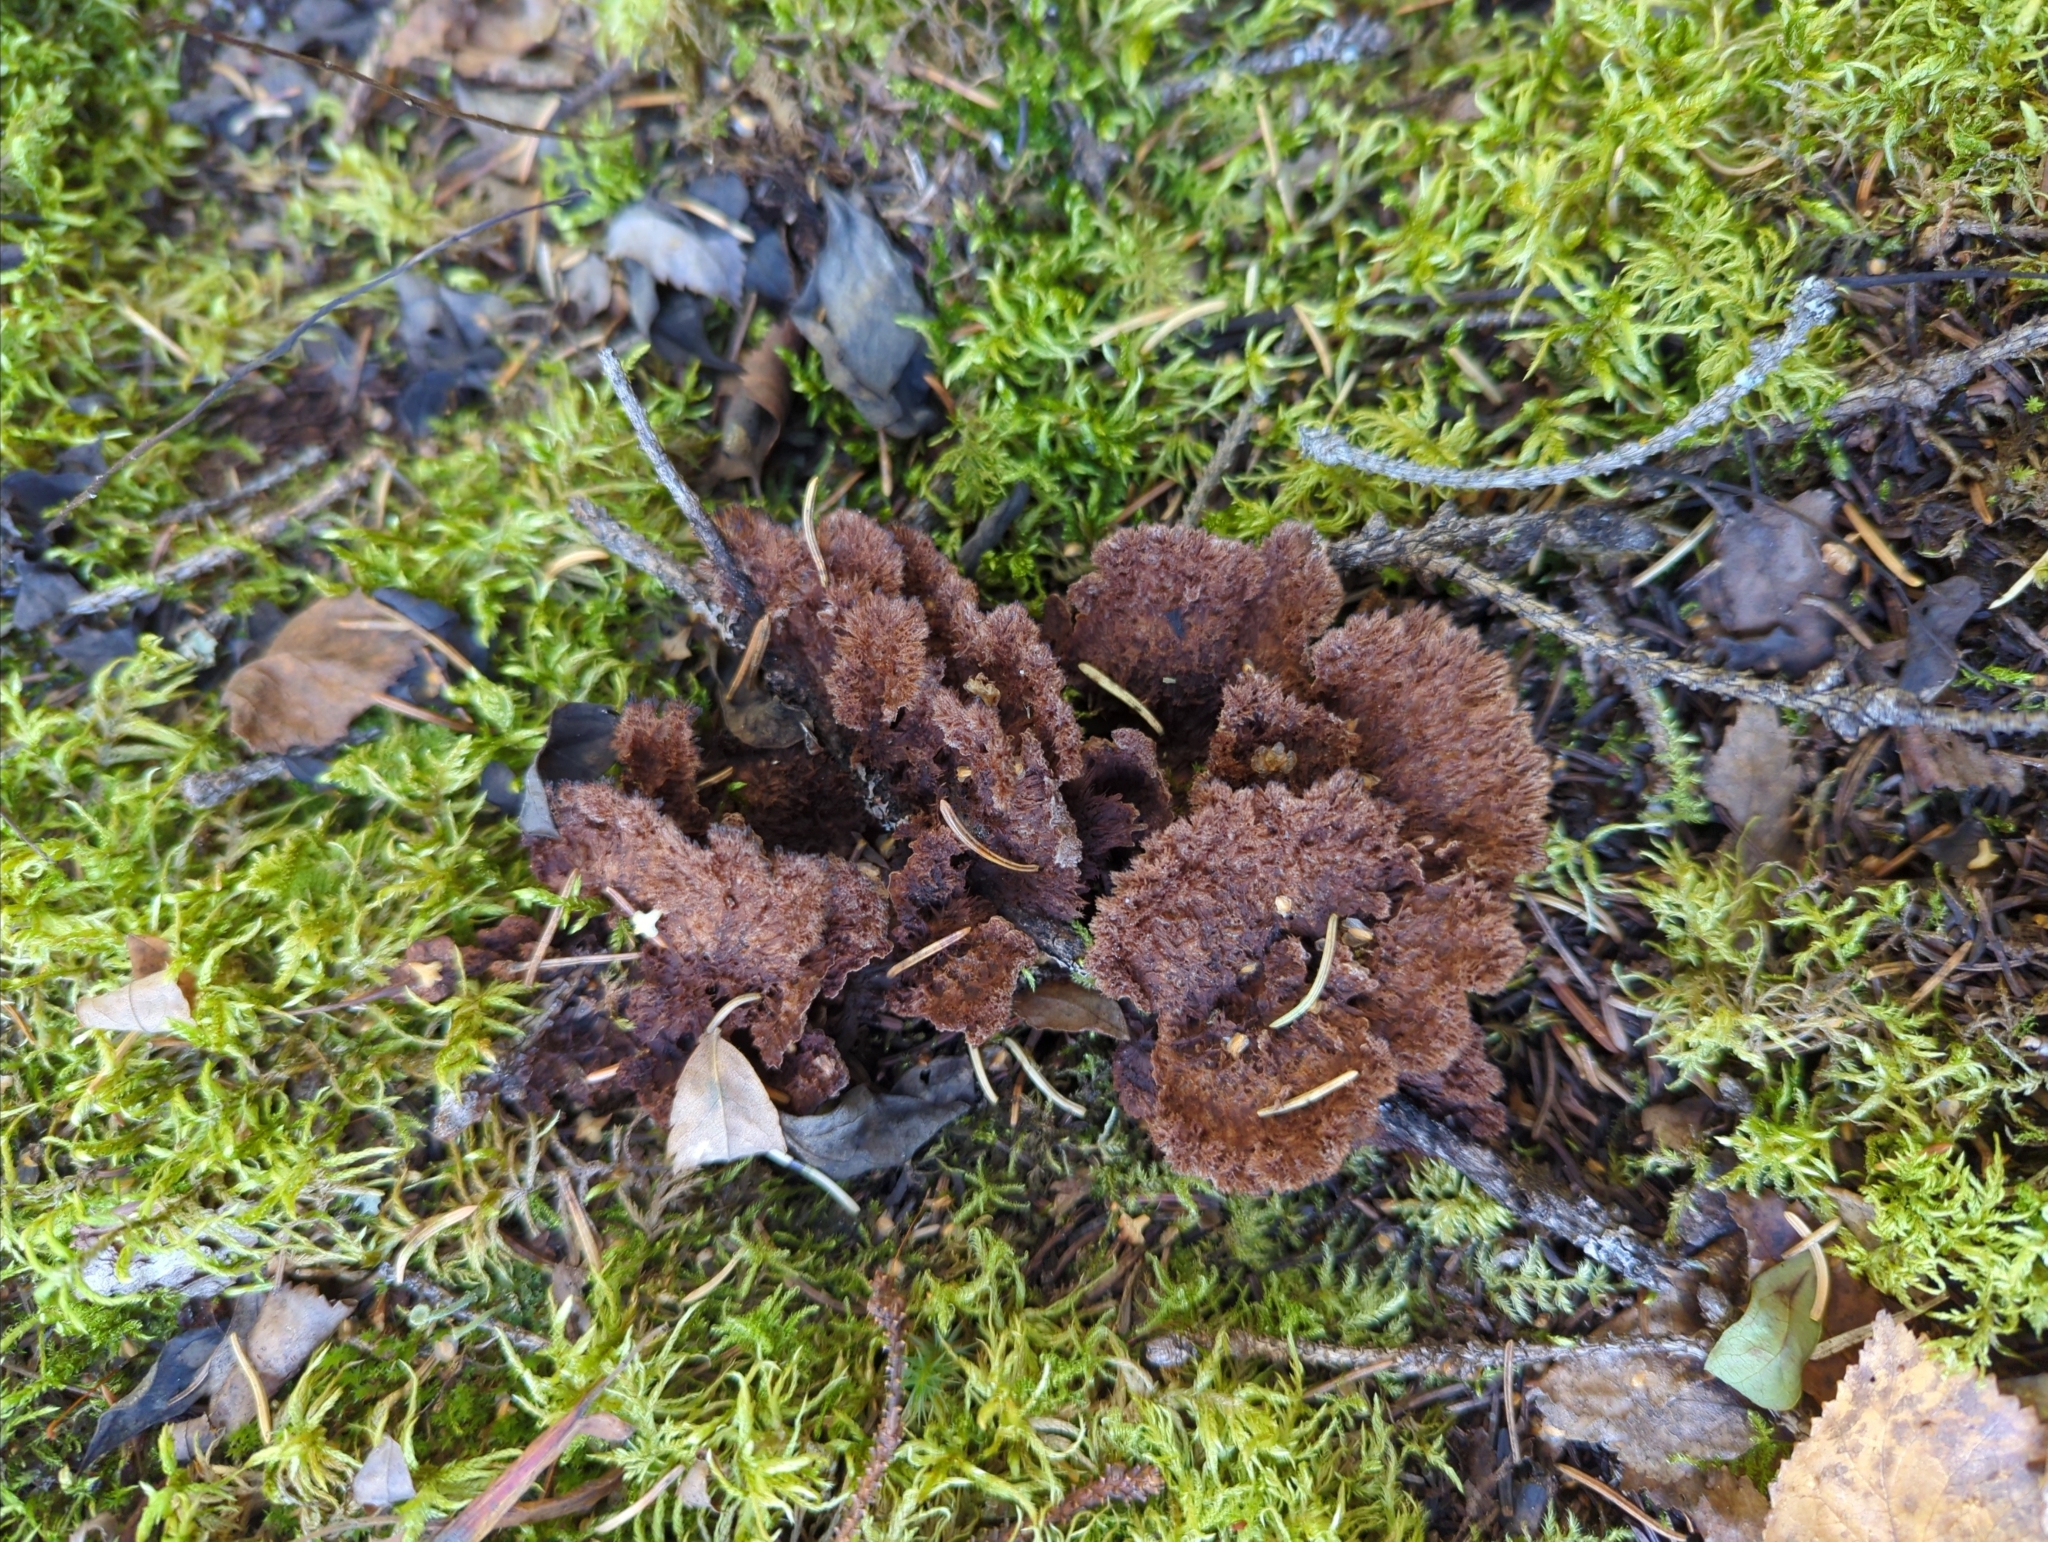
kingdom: Fungi
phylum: Basidiomycota
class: Agaricomycetes
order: Thelephorales
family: Thelephoraceae
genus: Thelephora
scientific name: Thelephora terrestris
